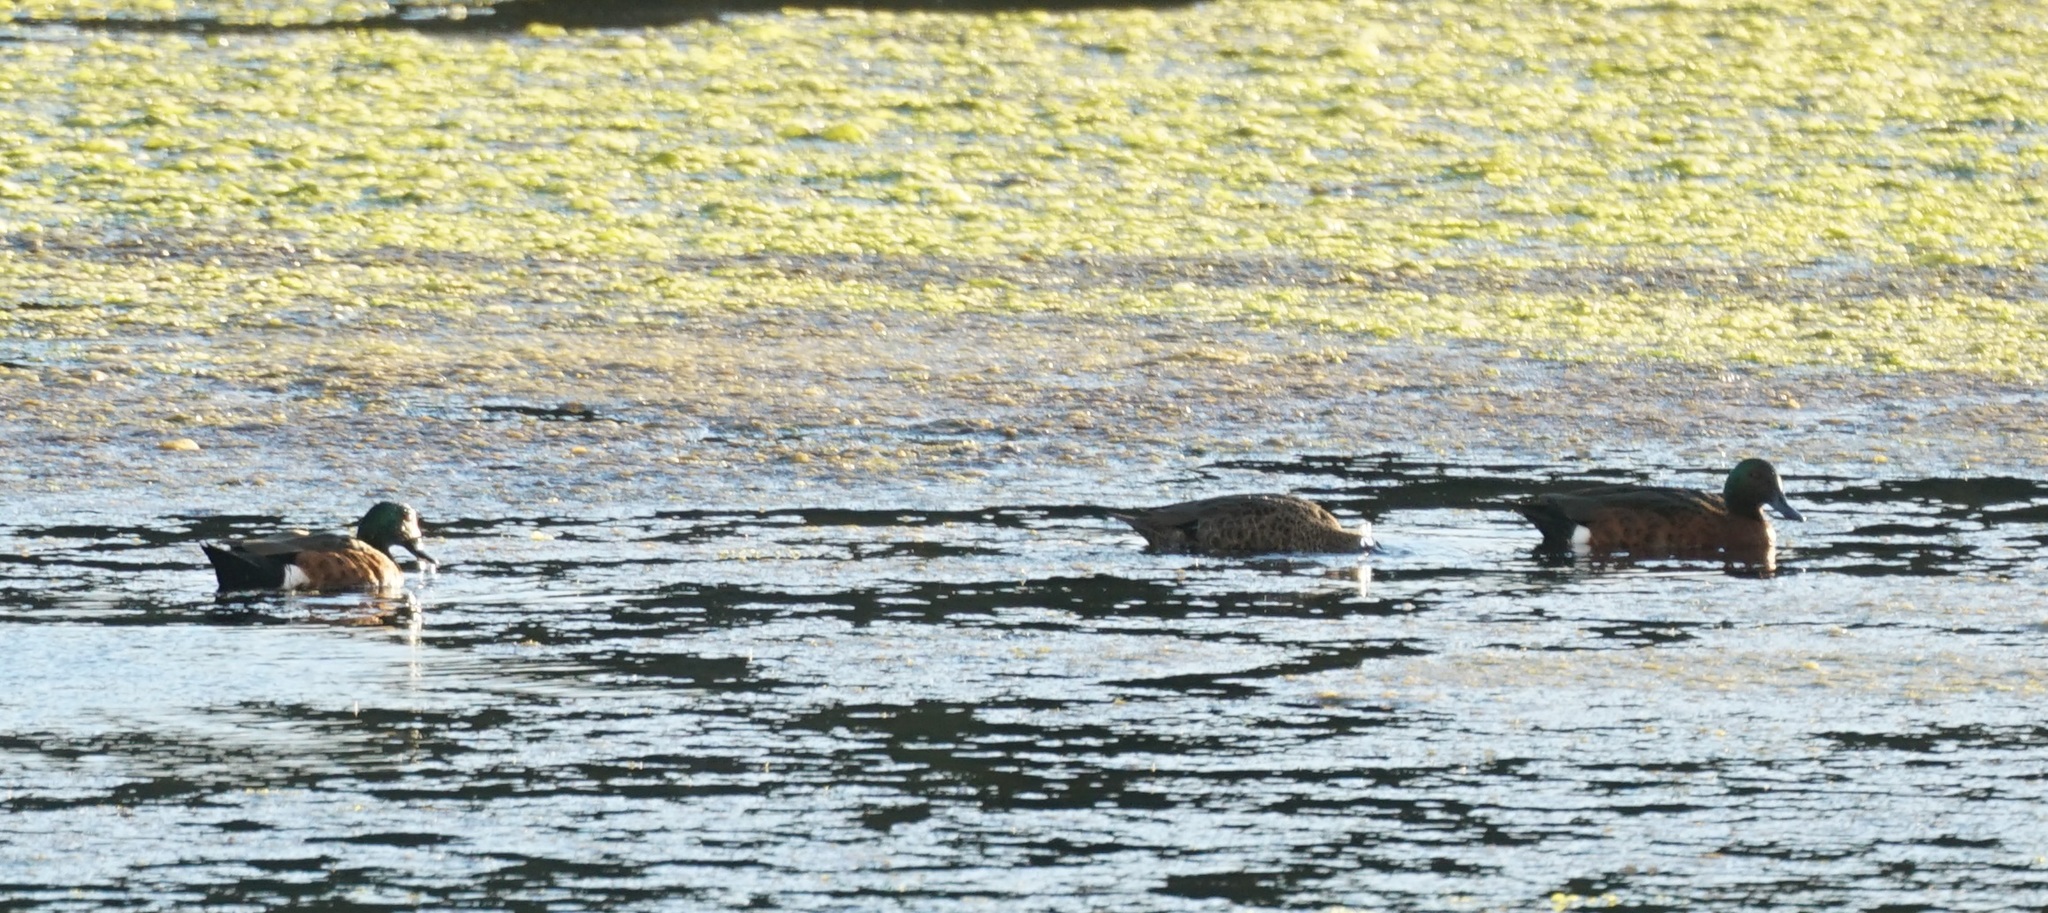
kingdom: Animalia
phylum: Chordata
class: Aves
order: Anseriformes
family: Anatidae
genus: Anas
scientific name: Anas castanea
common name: Chestnut teal
